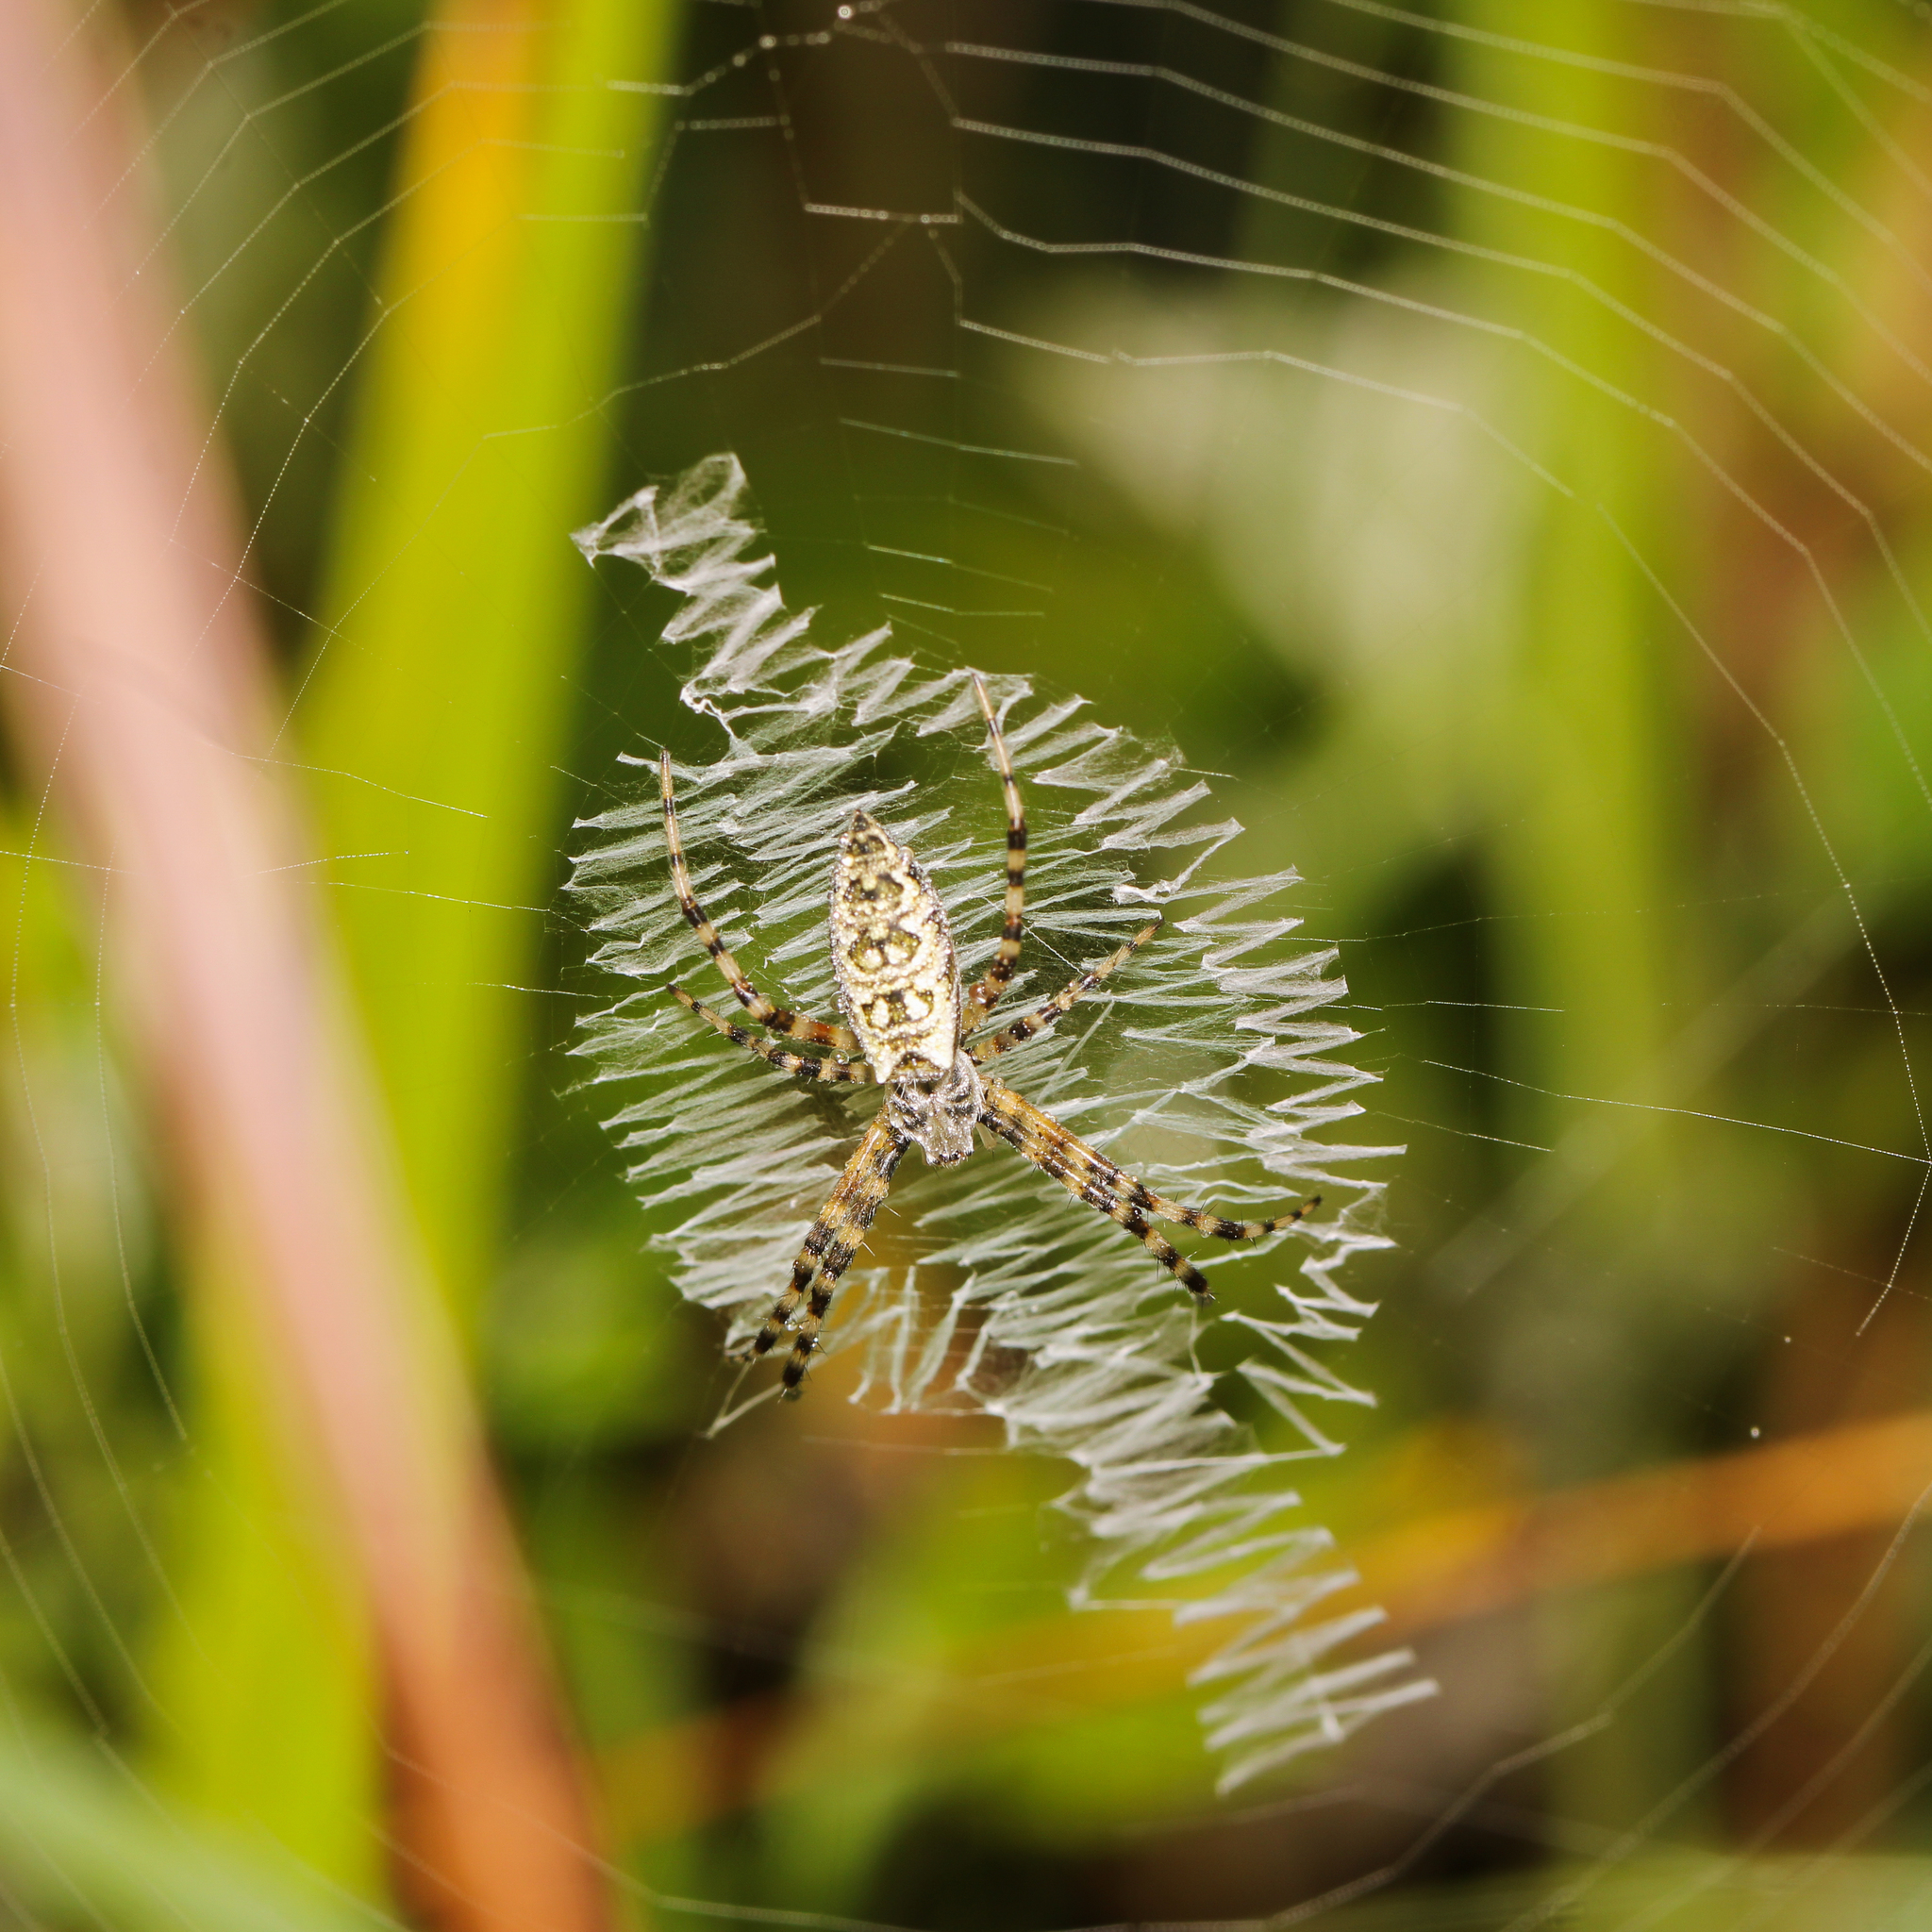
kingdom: Animalia
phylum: Arthropoda
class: Arachnida
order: Araneae
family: Araneidae
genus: Argiope
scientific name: Argiope aurantia
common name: Orb weavers
